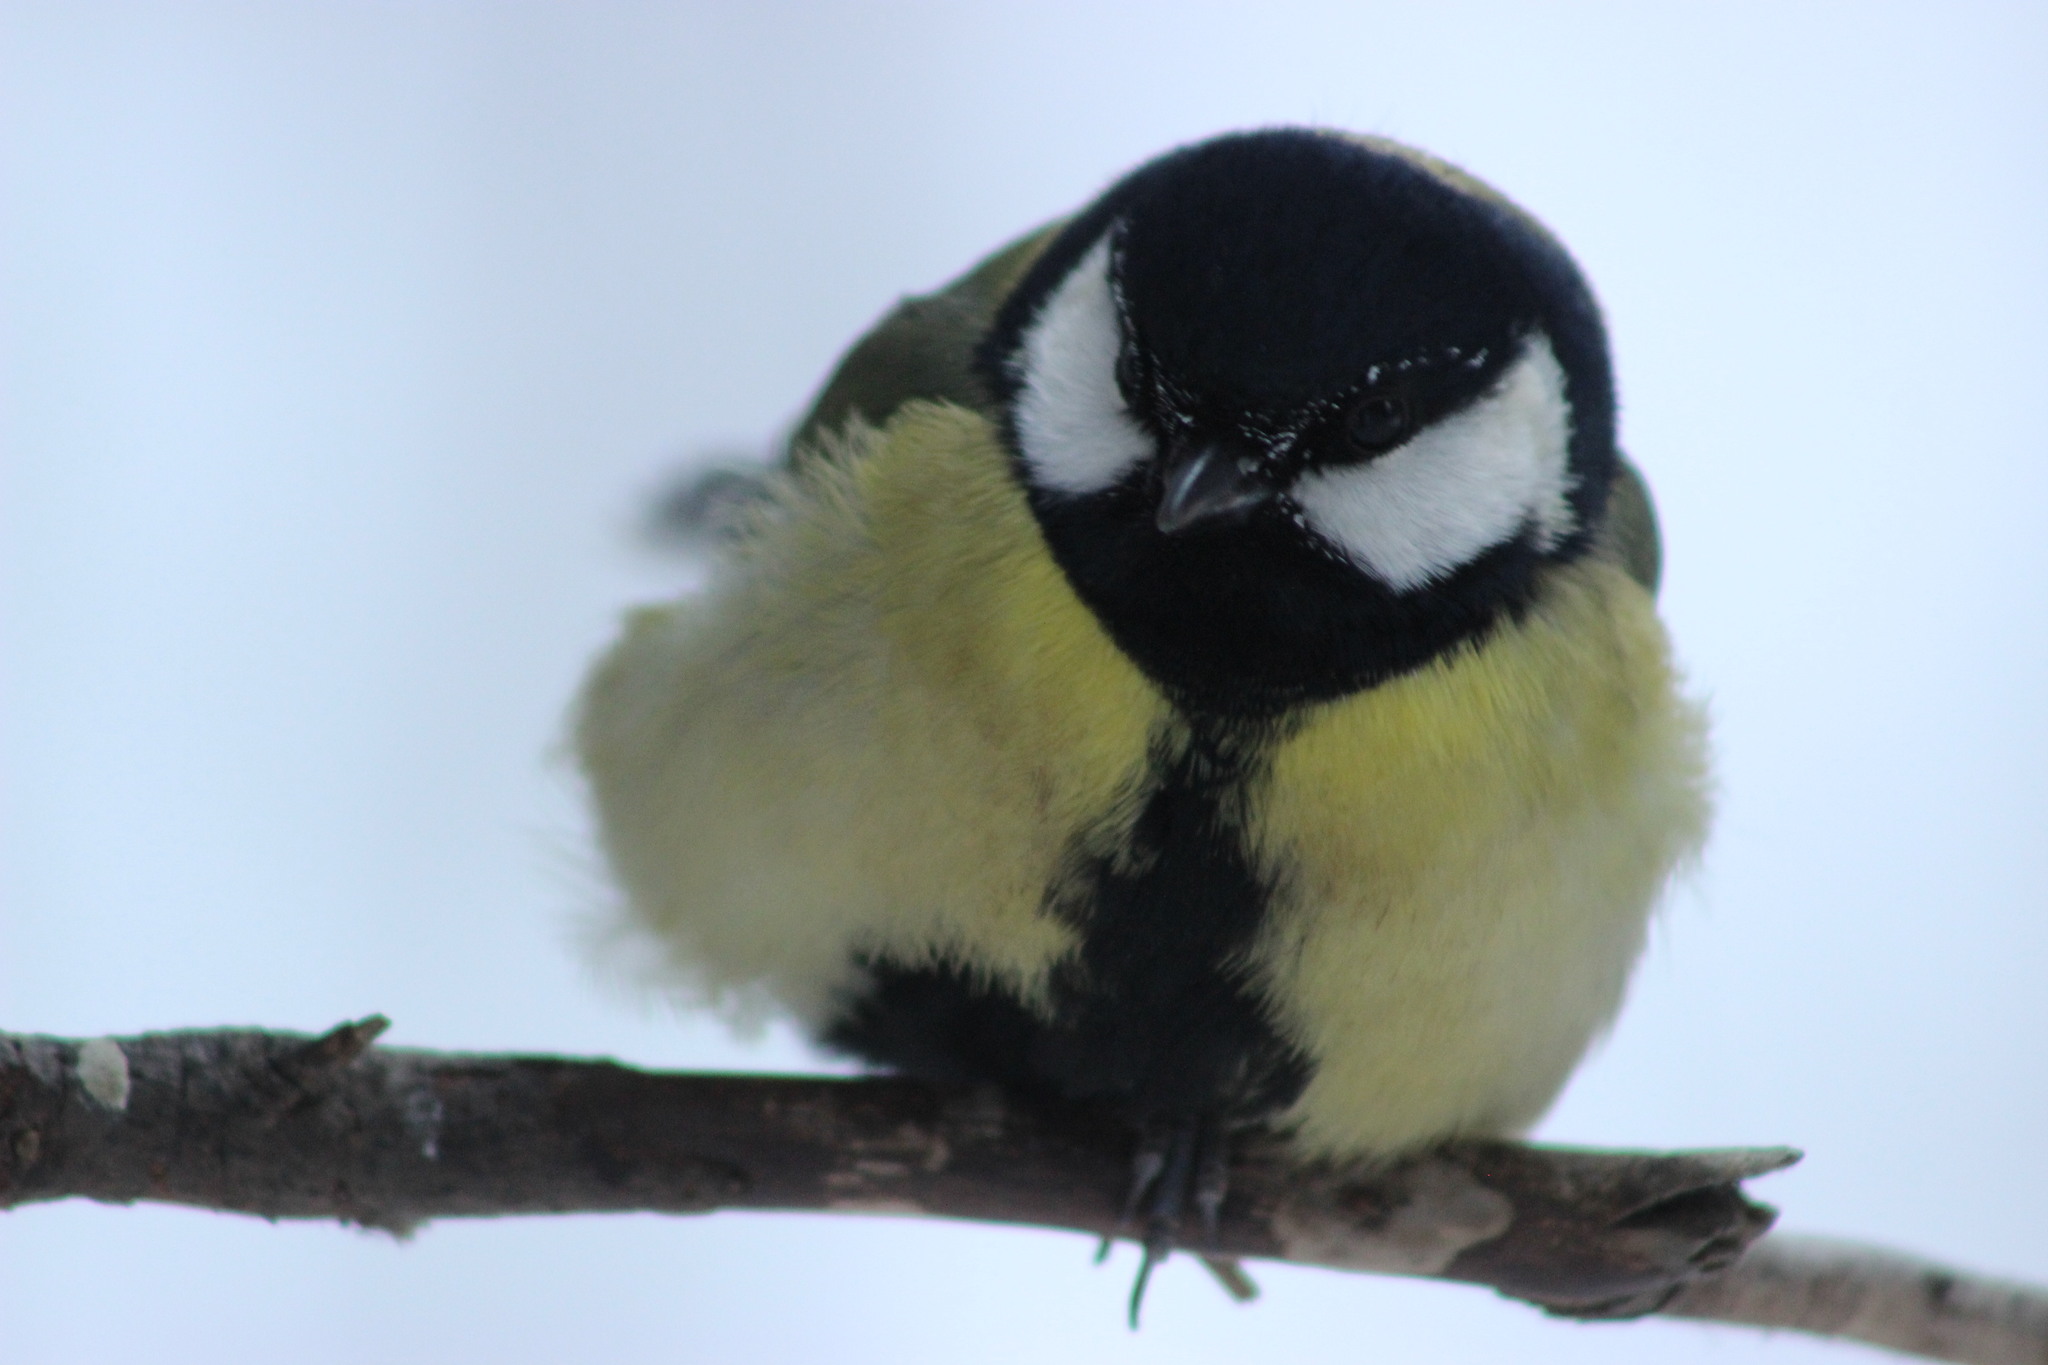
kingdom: Animalia
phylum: Chordata
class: Aves
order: Passeriformes
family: Paridae
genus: Parus
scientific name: Parus major
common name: Great tit
